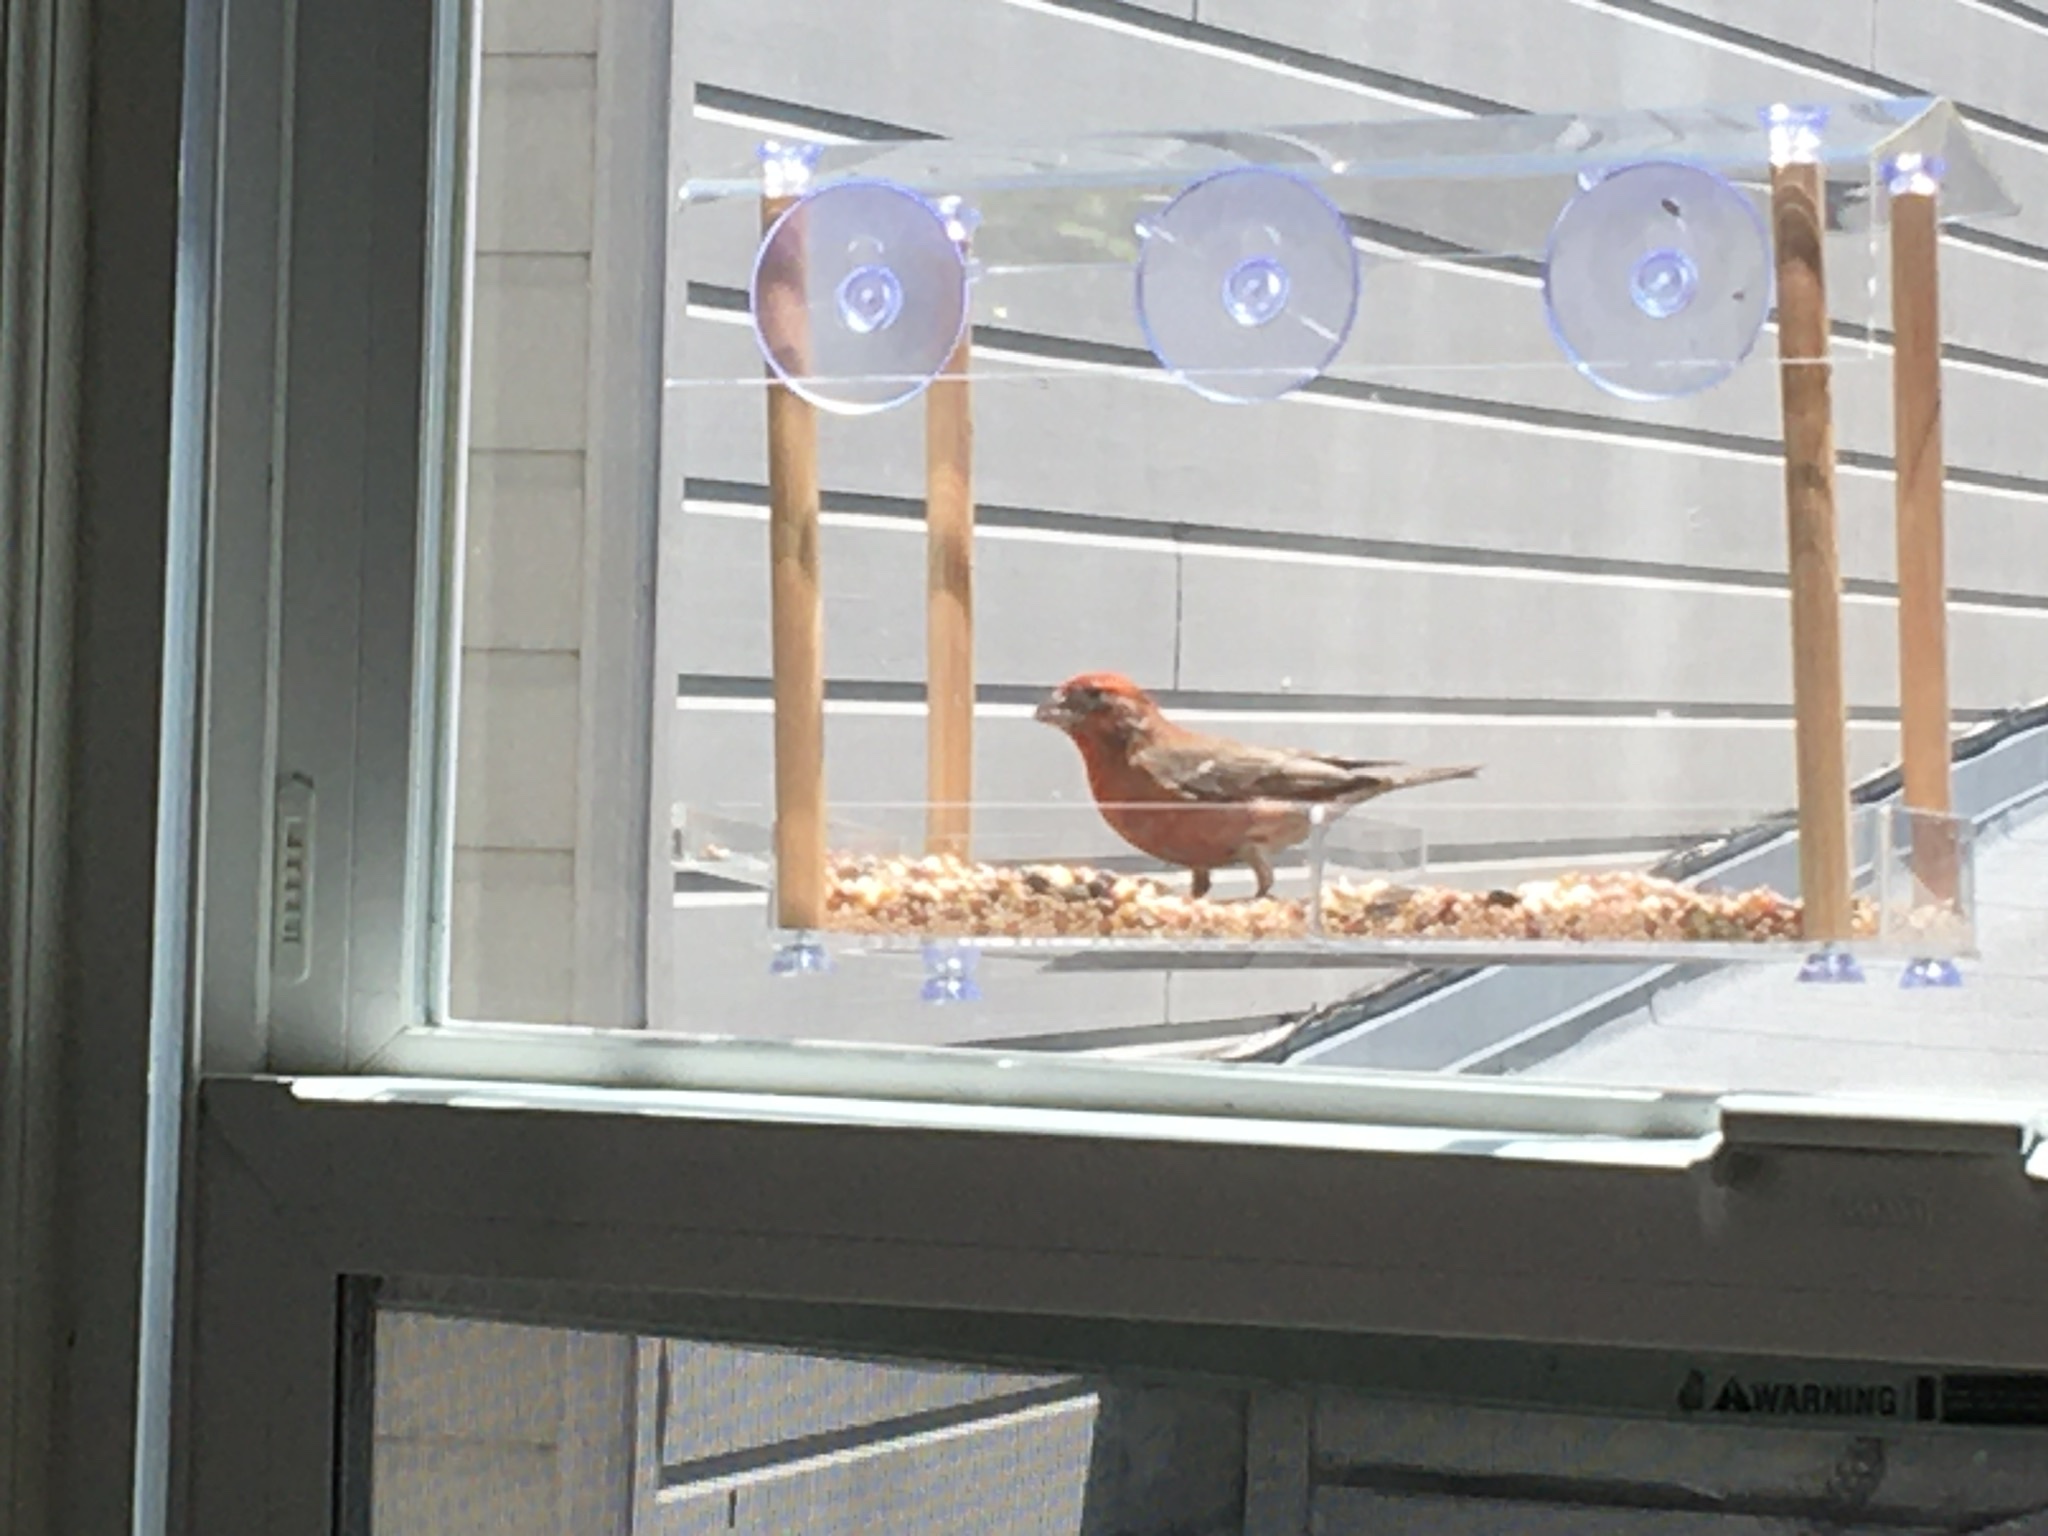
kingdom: Animalia
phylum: Chordata
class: Aves
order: Passeriformes
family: Fringillidae
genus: Haemorhous
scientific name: Haemorhous mexicanus
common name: House finch
